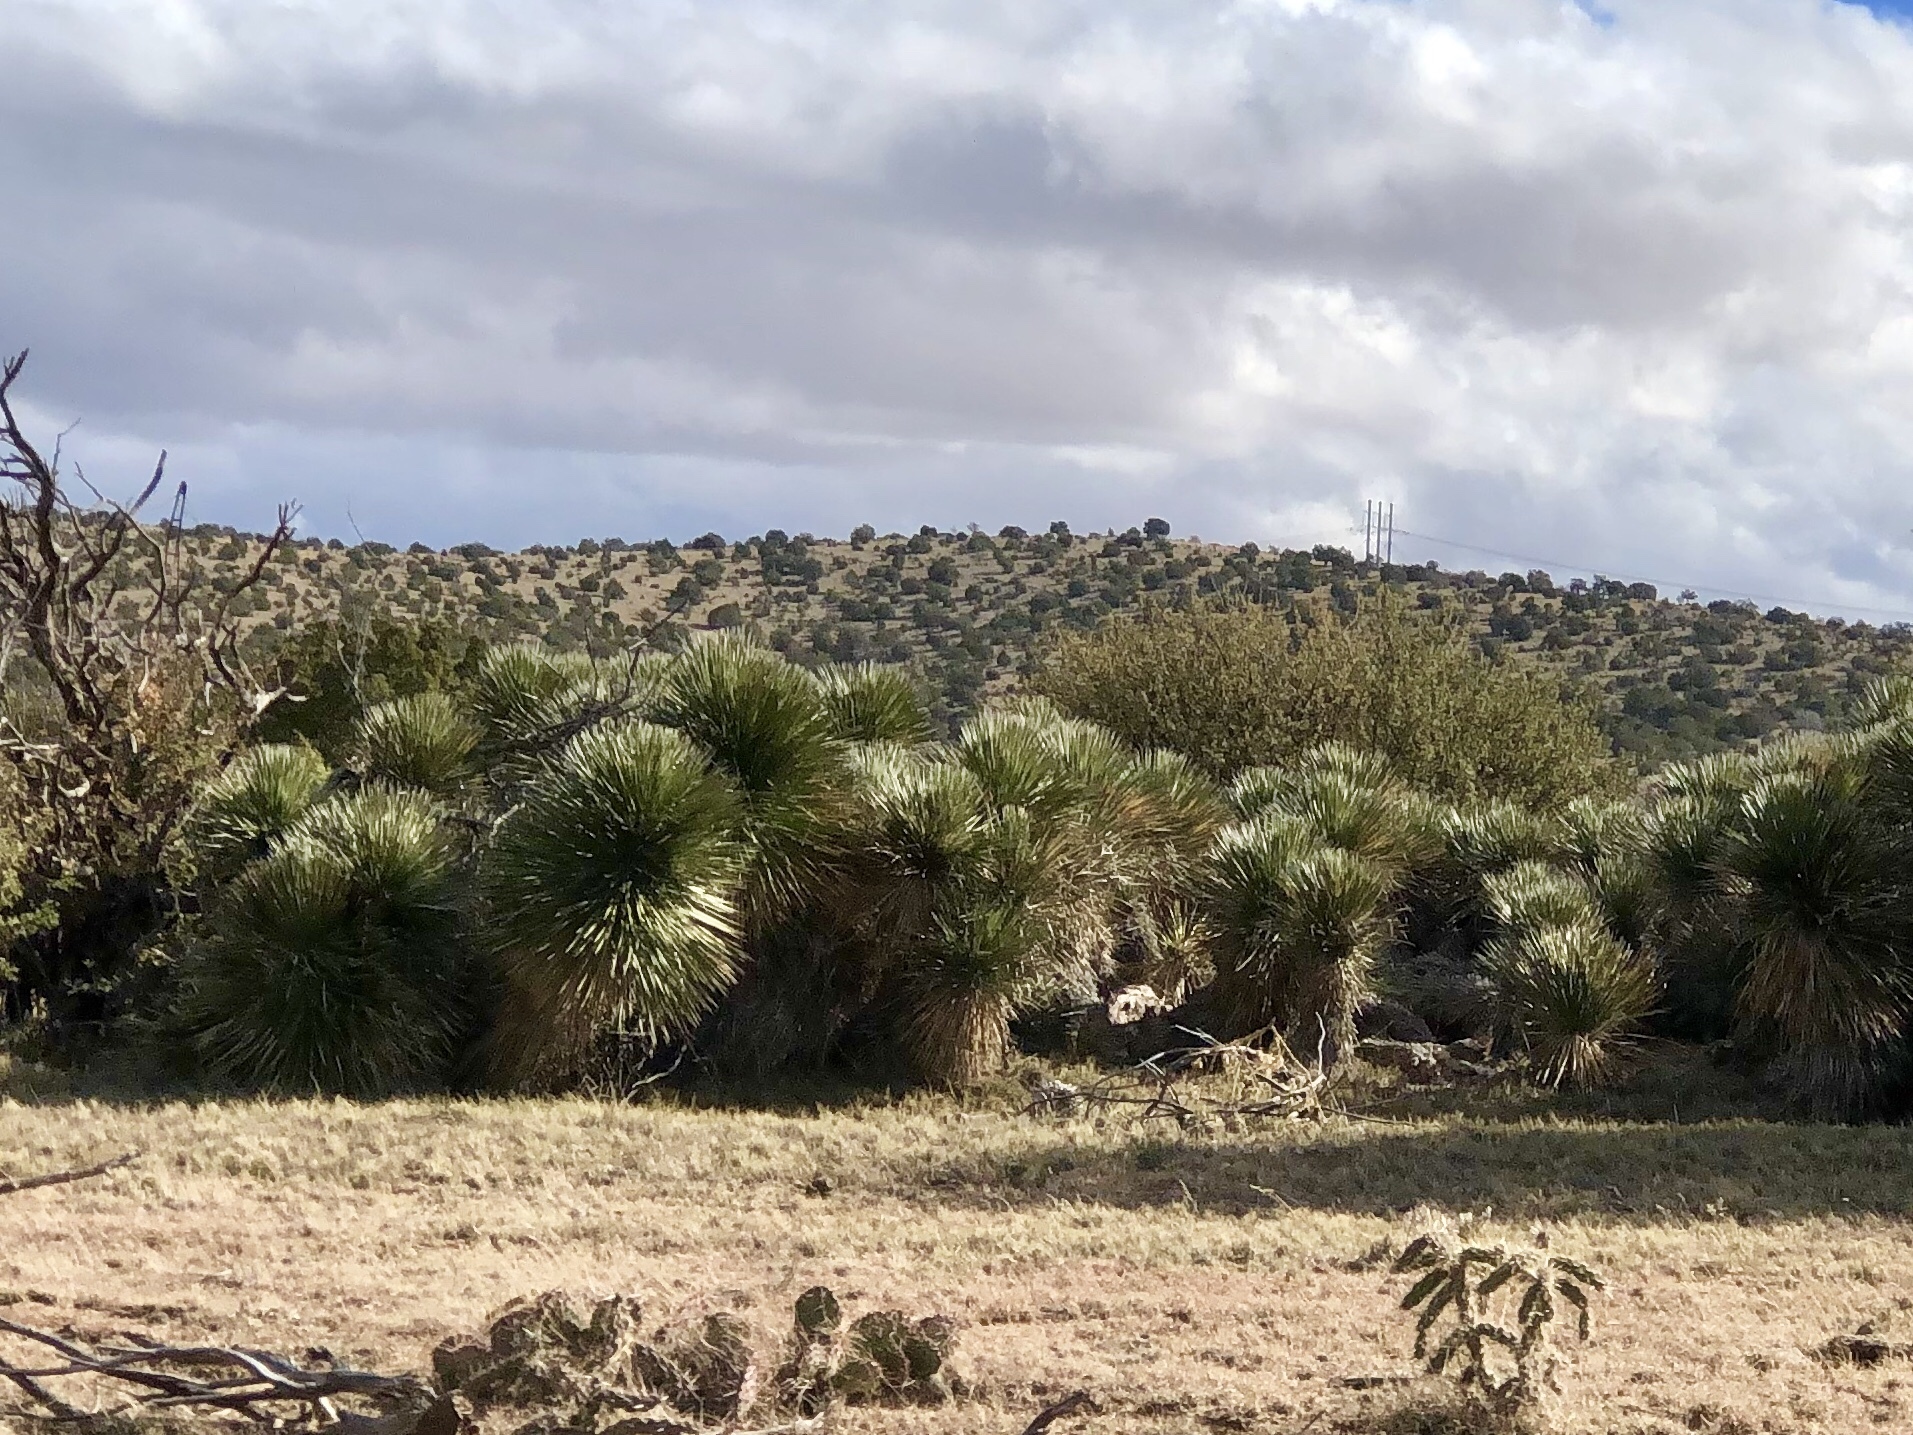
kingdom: Plantae
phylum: Tracheophyta
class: Liliopsida
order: Asparagales
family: Asparagaceae
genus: Yucca
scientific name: Yucca elata
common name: Palmella
